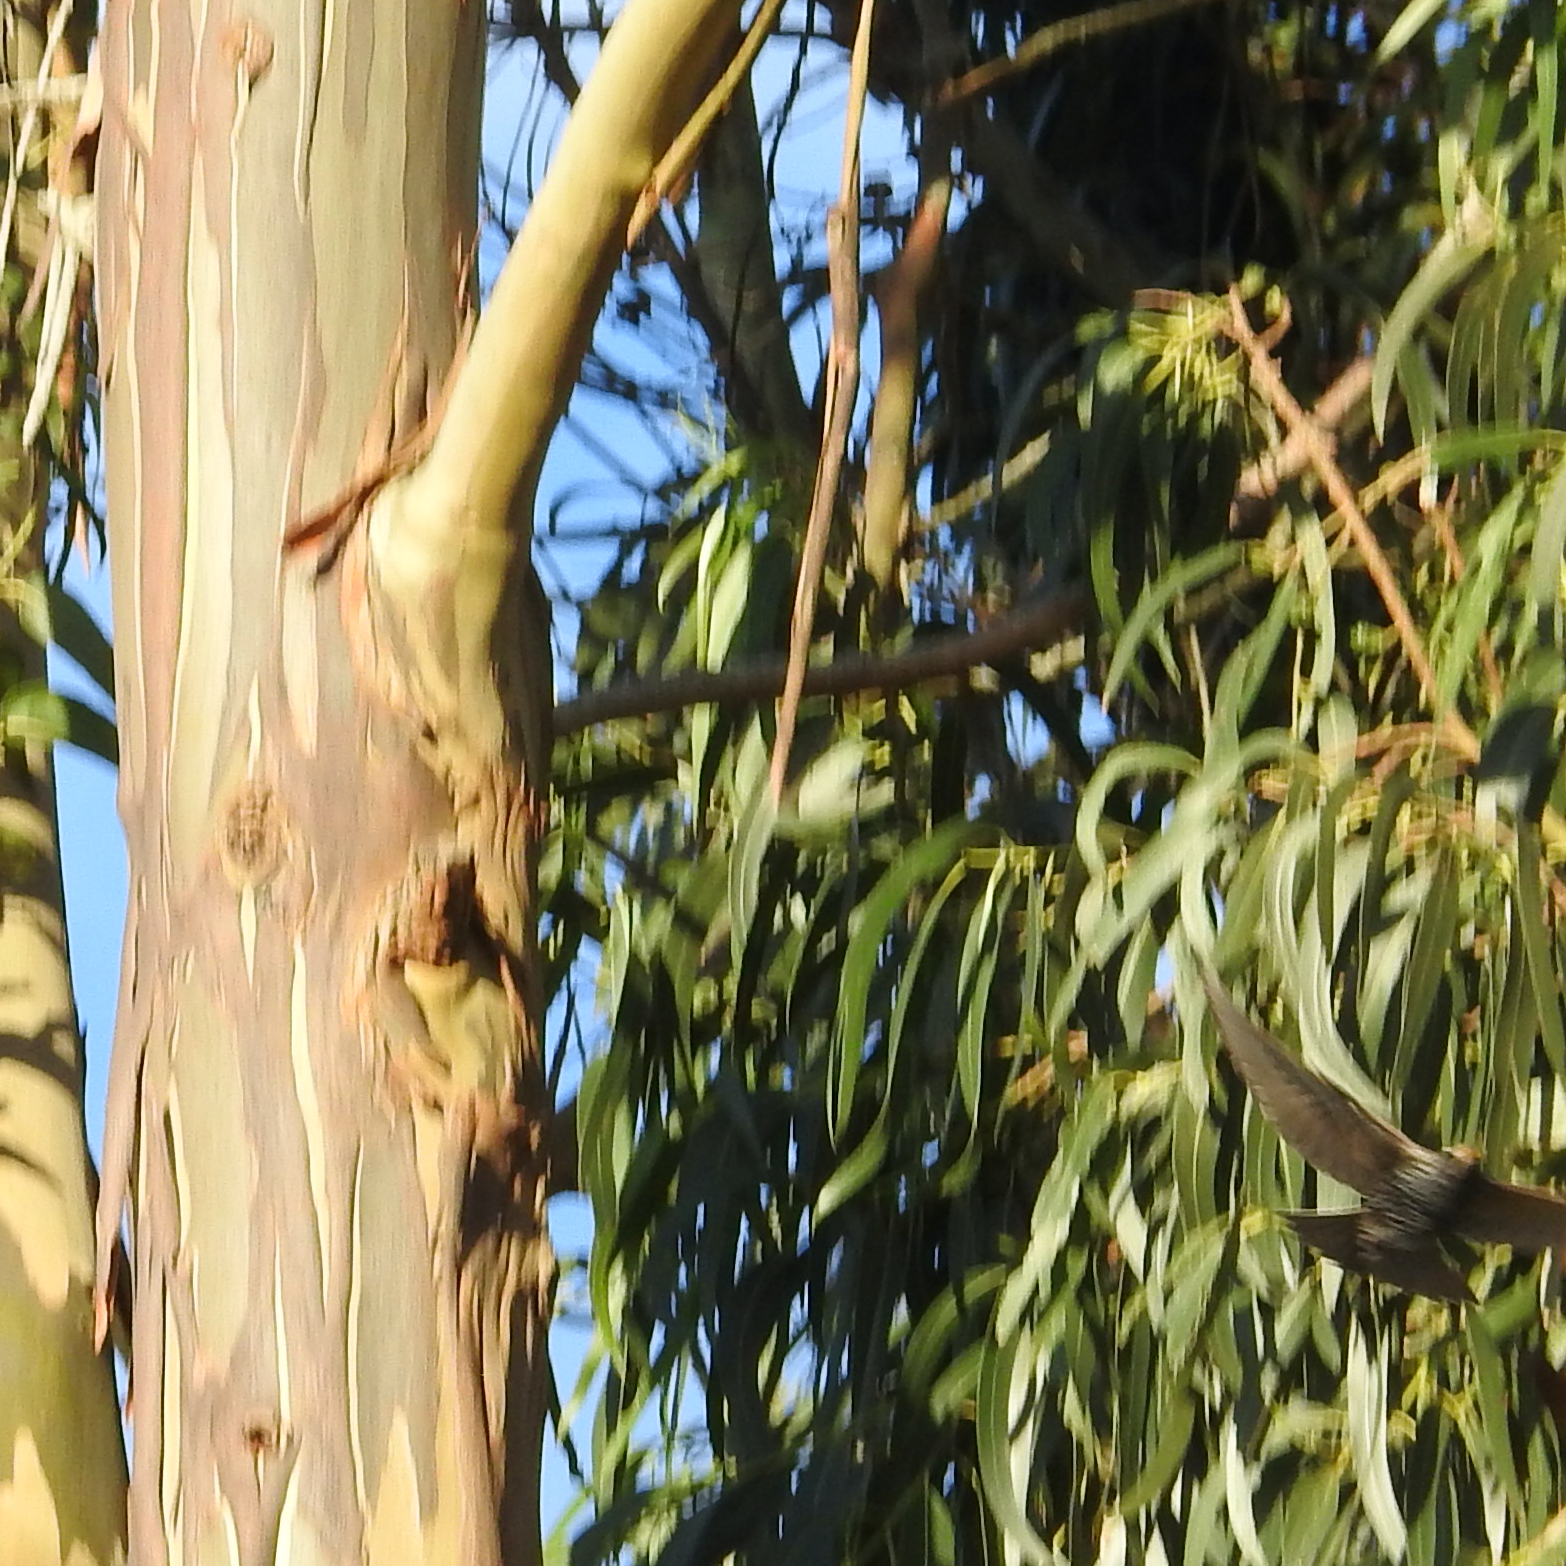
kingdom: Animalia
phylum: Chordata
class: Aves
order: Passeriformes
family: Sturnidae
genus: Sturnus
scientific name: Sturnus vulgaris
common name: Common starling
